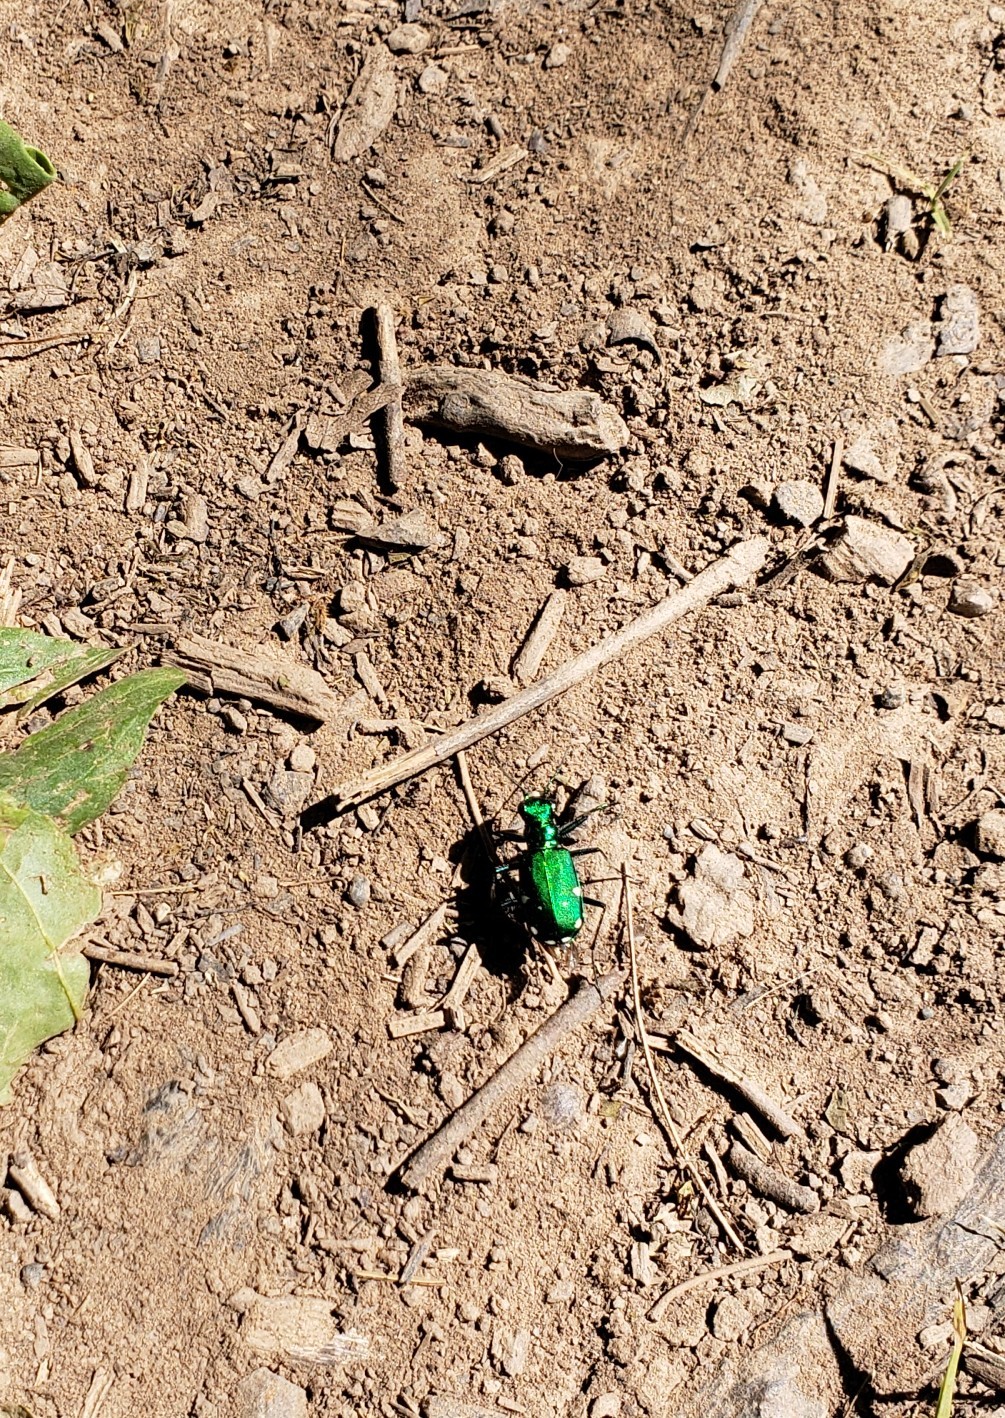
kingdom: Animalia
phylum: Arthropoda
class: Insecta
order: Coleoptera
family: Carabidae
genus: Cicindela
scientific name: Cicindela sexguttata
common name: Six-spotted tiger beetle
